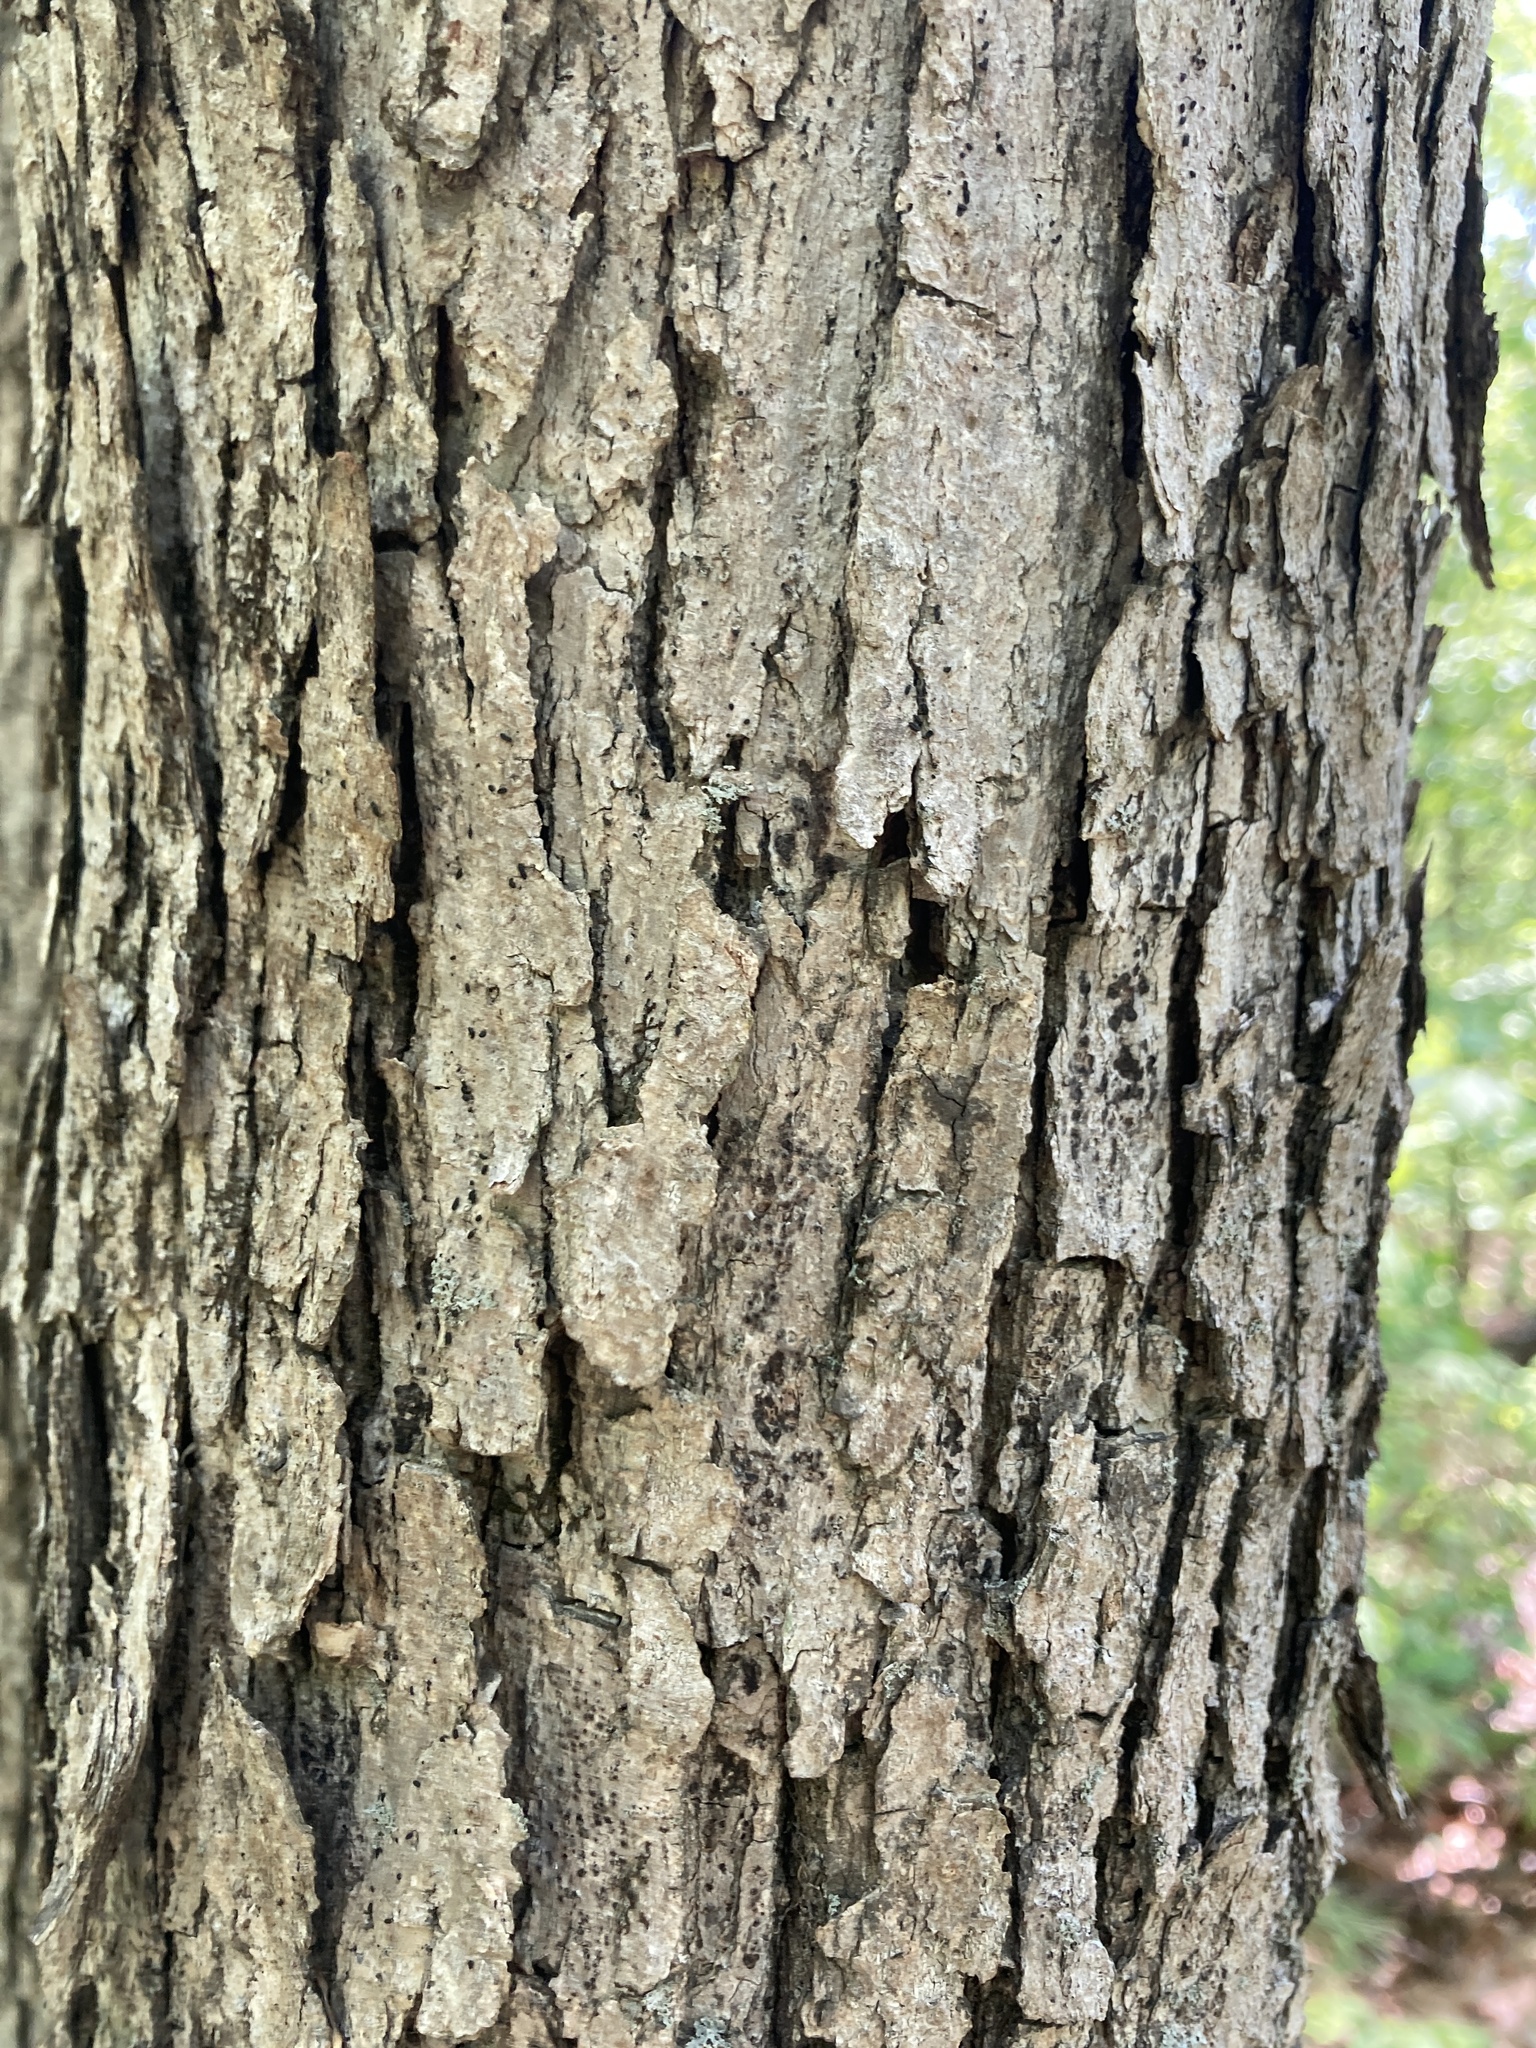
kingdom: Plantae
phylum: Tracheophyta
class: Magnoliopsida
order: Fagales
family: Fagaceae
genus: Quercus
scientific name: Quercus alba
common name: White oak
